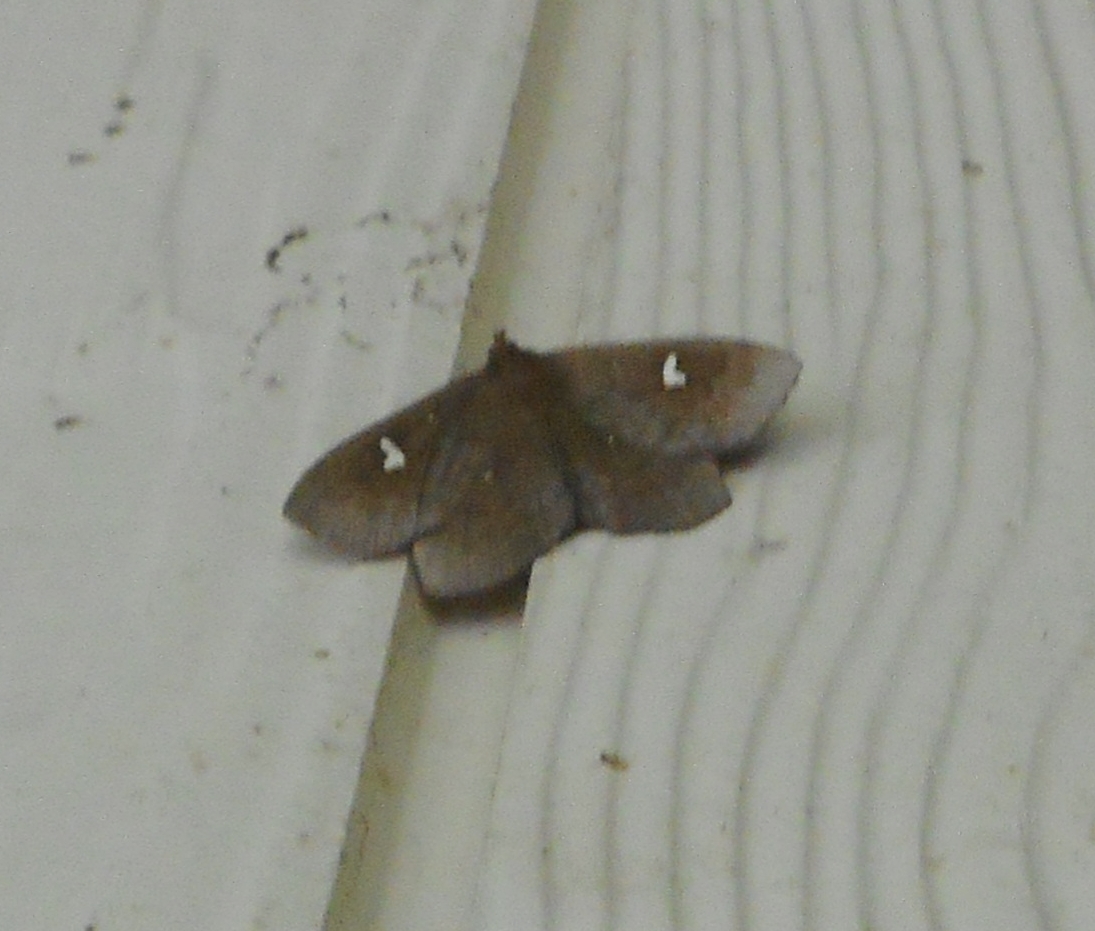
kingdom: Animalia
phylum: Arthropoda
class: Insecta
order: Lepidoptera
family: Erebidae
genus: Edessena
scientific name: Edessena hamada
